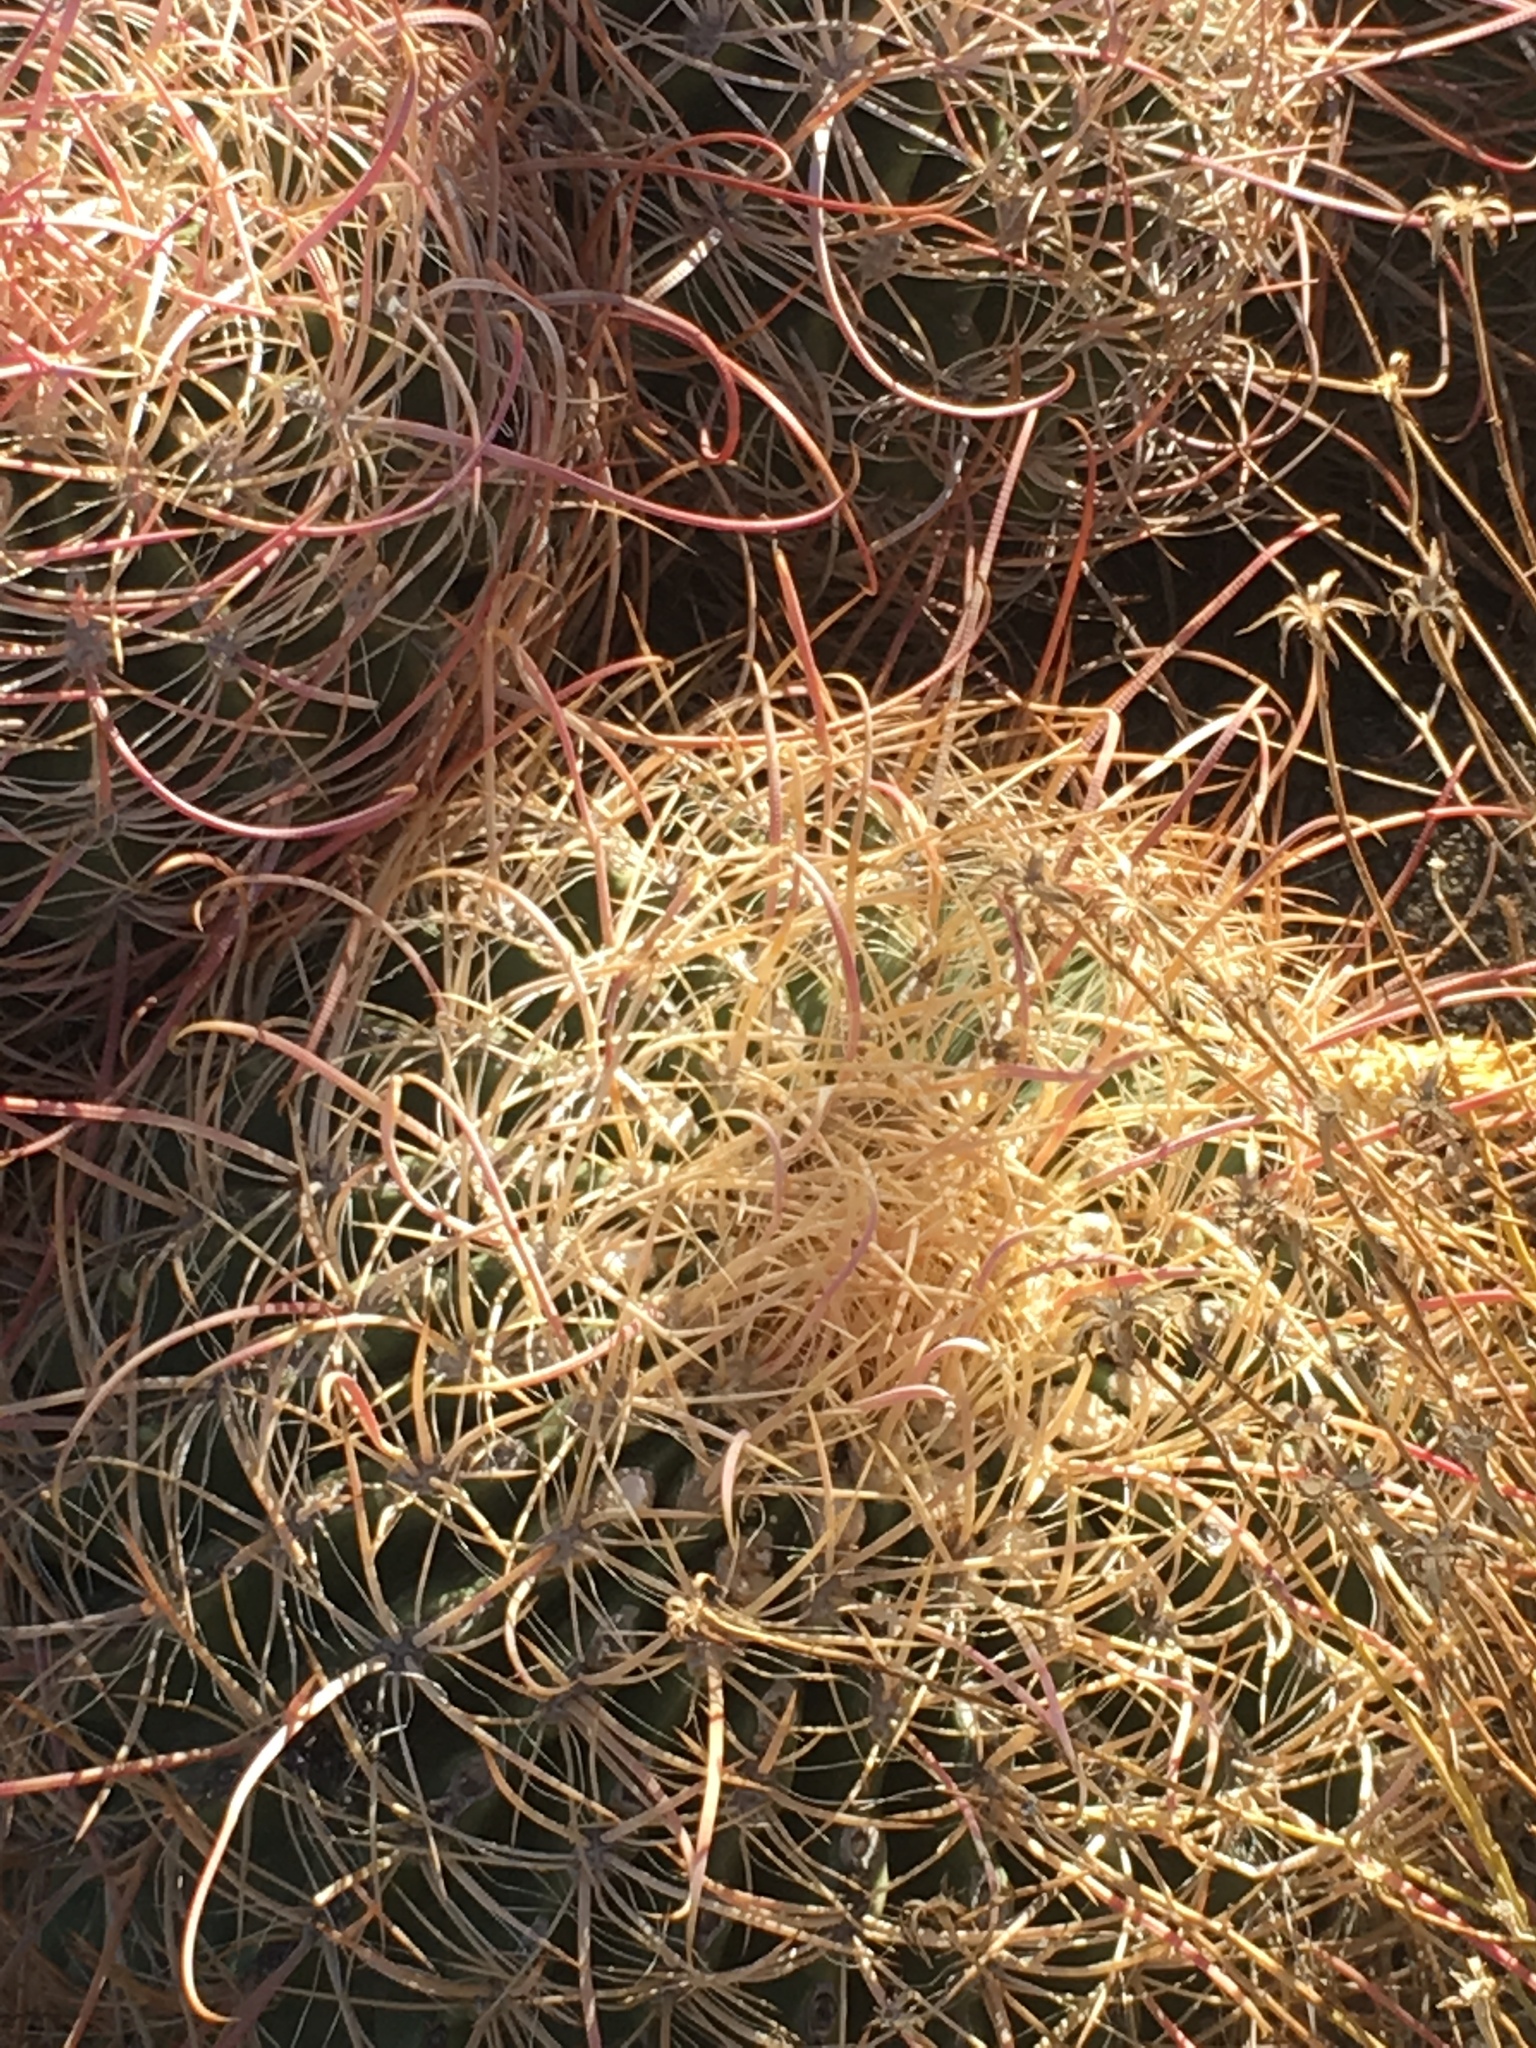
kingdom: Plantae
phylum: Tracheophyta
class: Magnoliopsida
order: Caryophyllales
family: Cactaceae
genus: Ferocactus
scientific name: Ferocactus cylindraceus
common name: California barrel cactus
